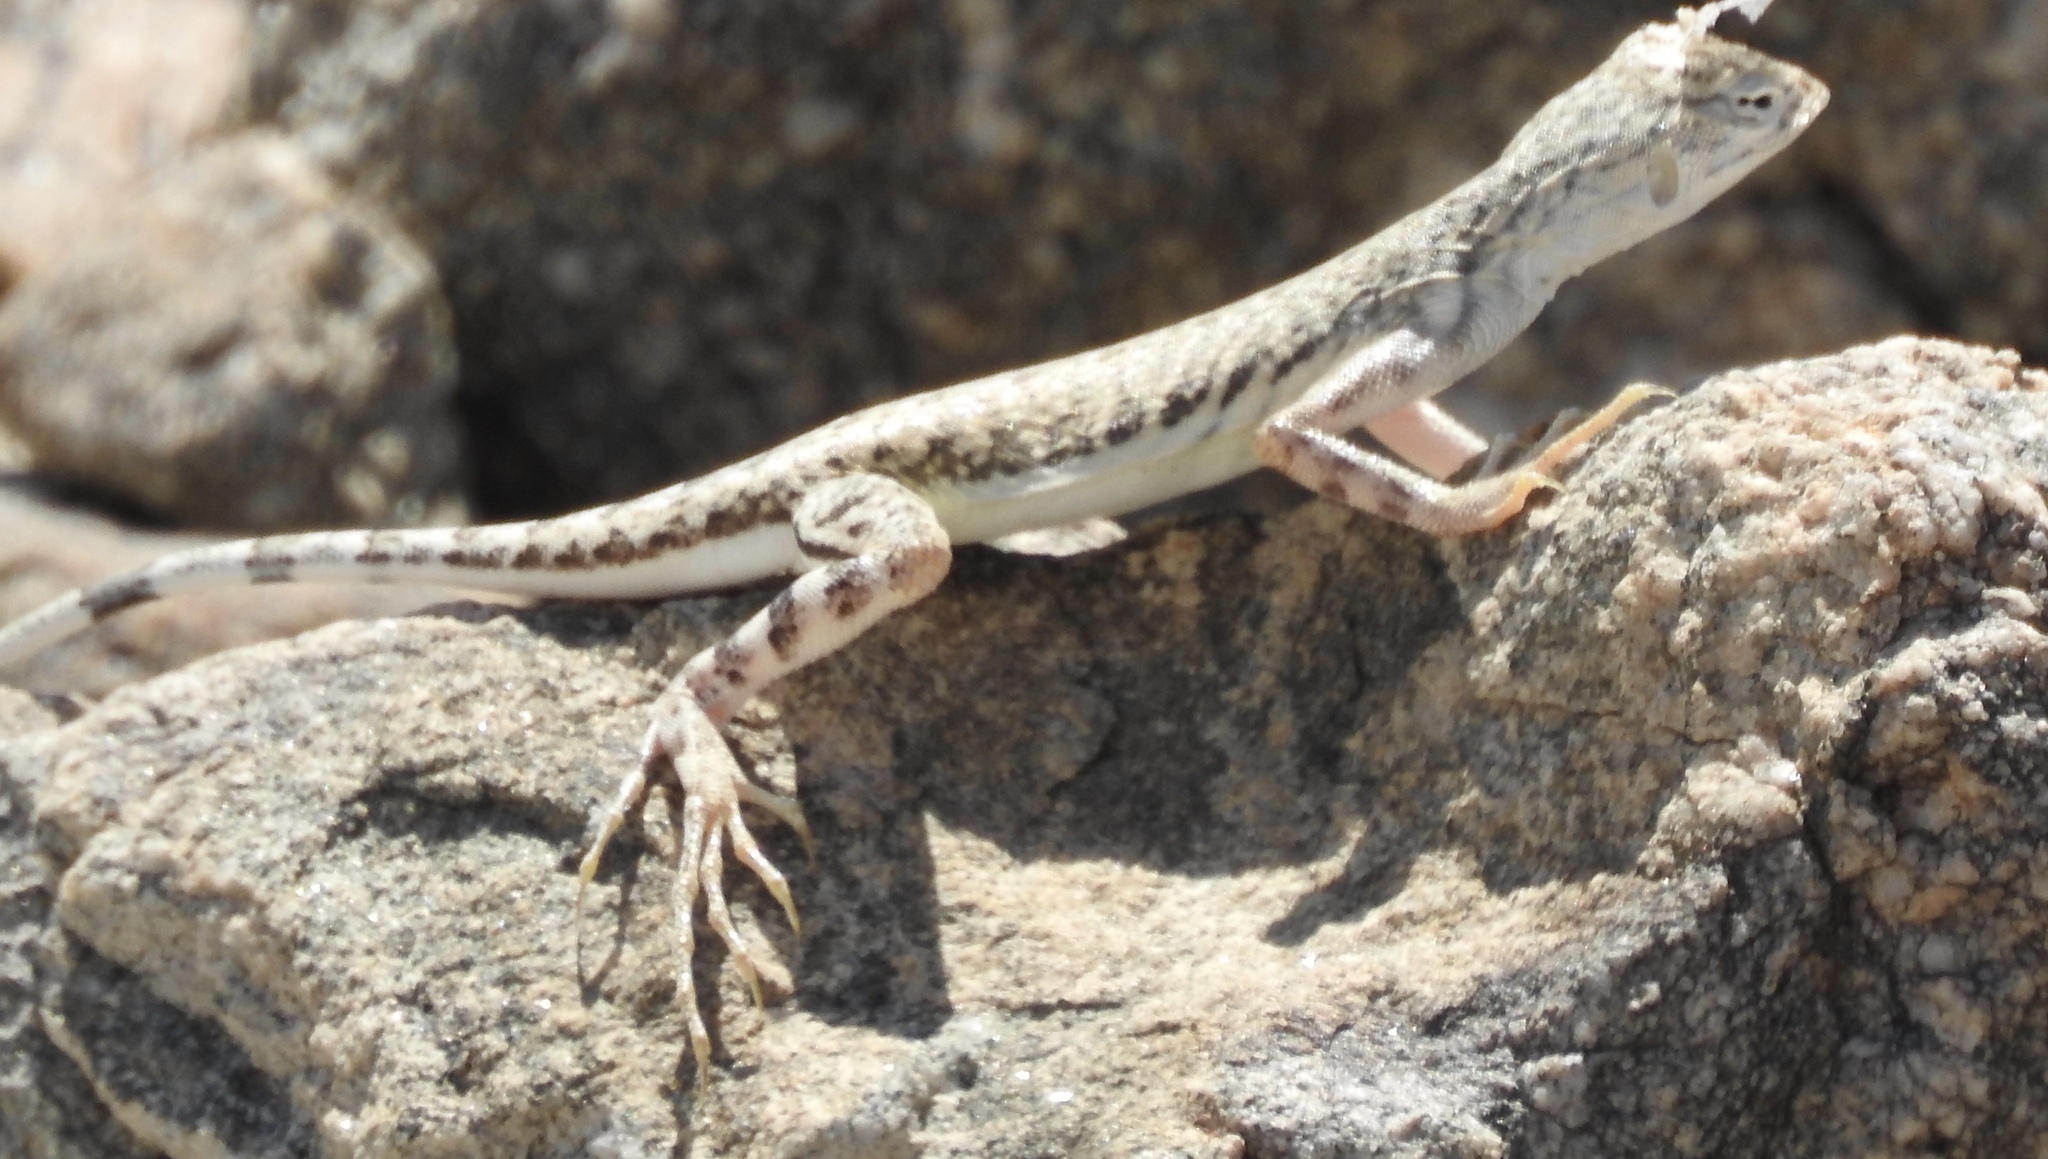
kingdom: Animalia
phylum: Chordata
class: Squamata
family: Phrynosomatidae
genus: Callisaurus
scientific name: Callisaurus draconoides
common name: Zebra-tailed lizard
